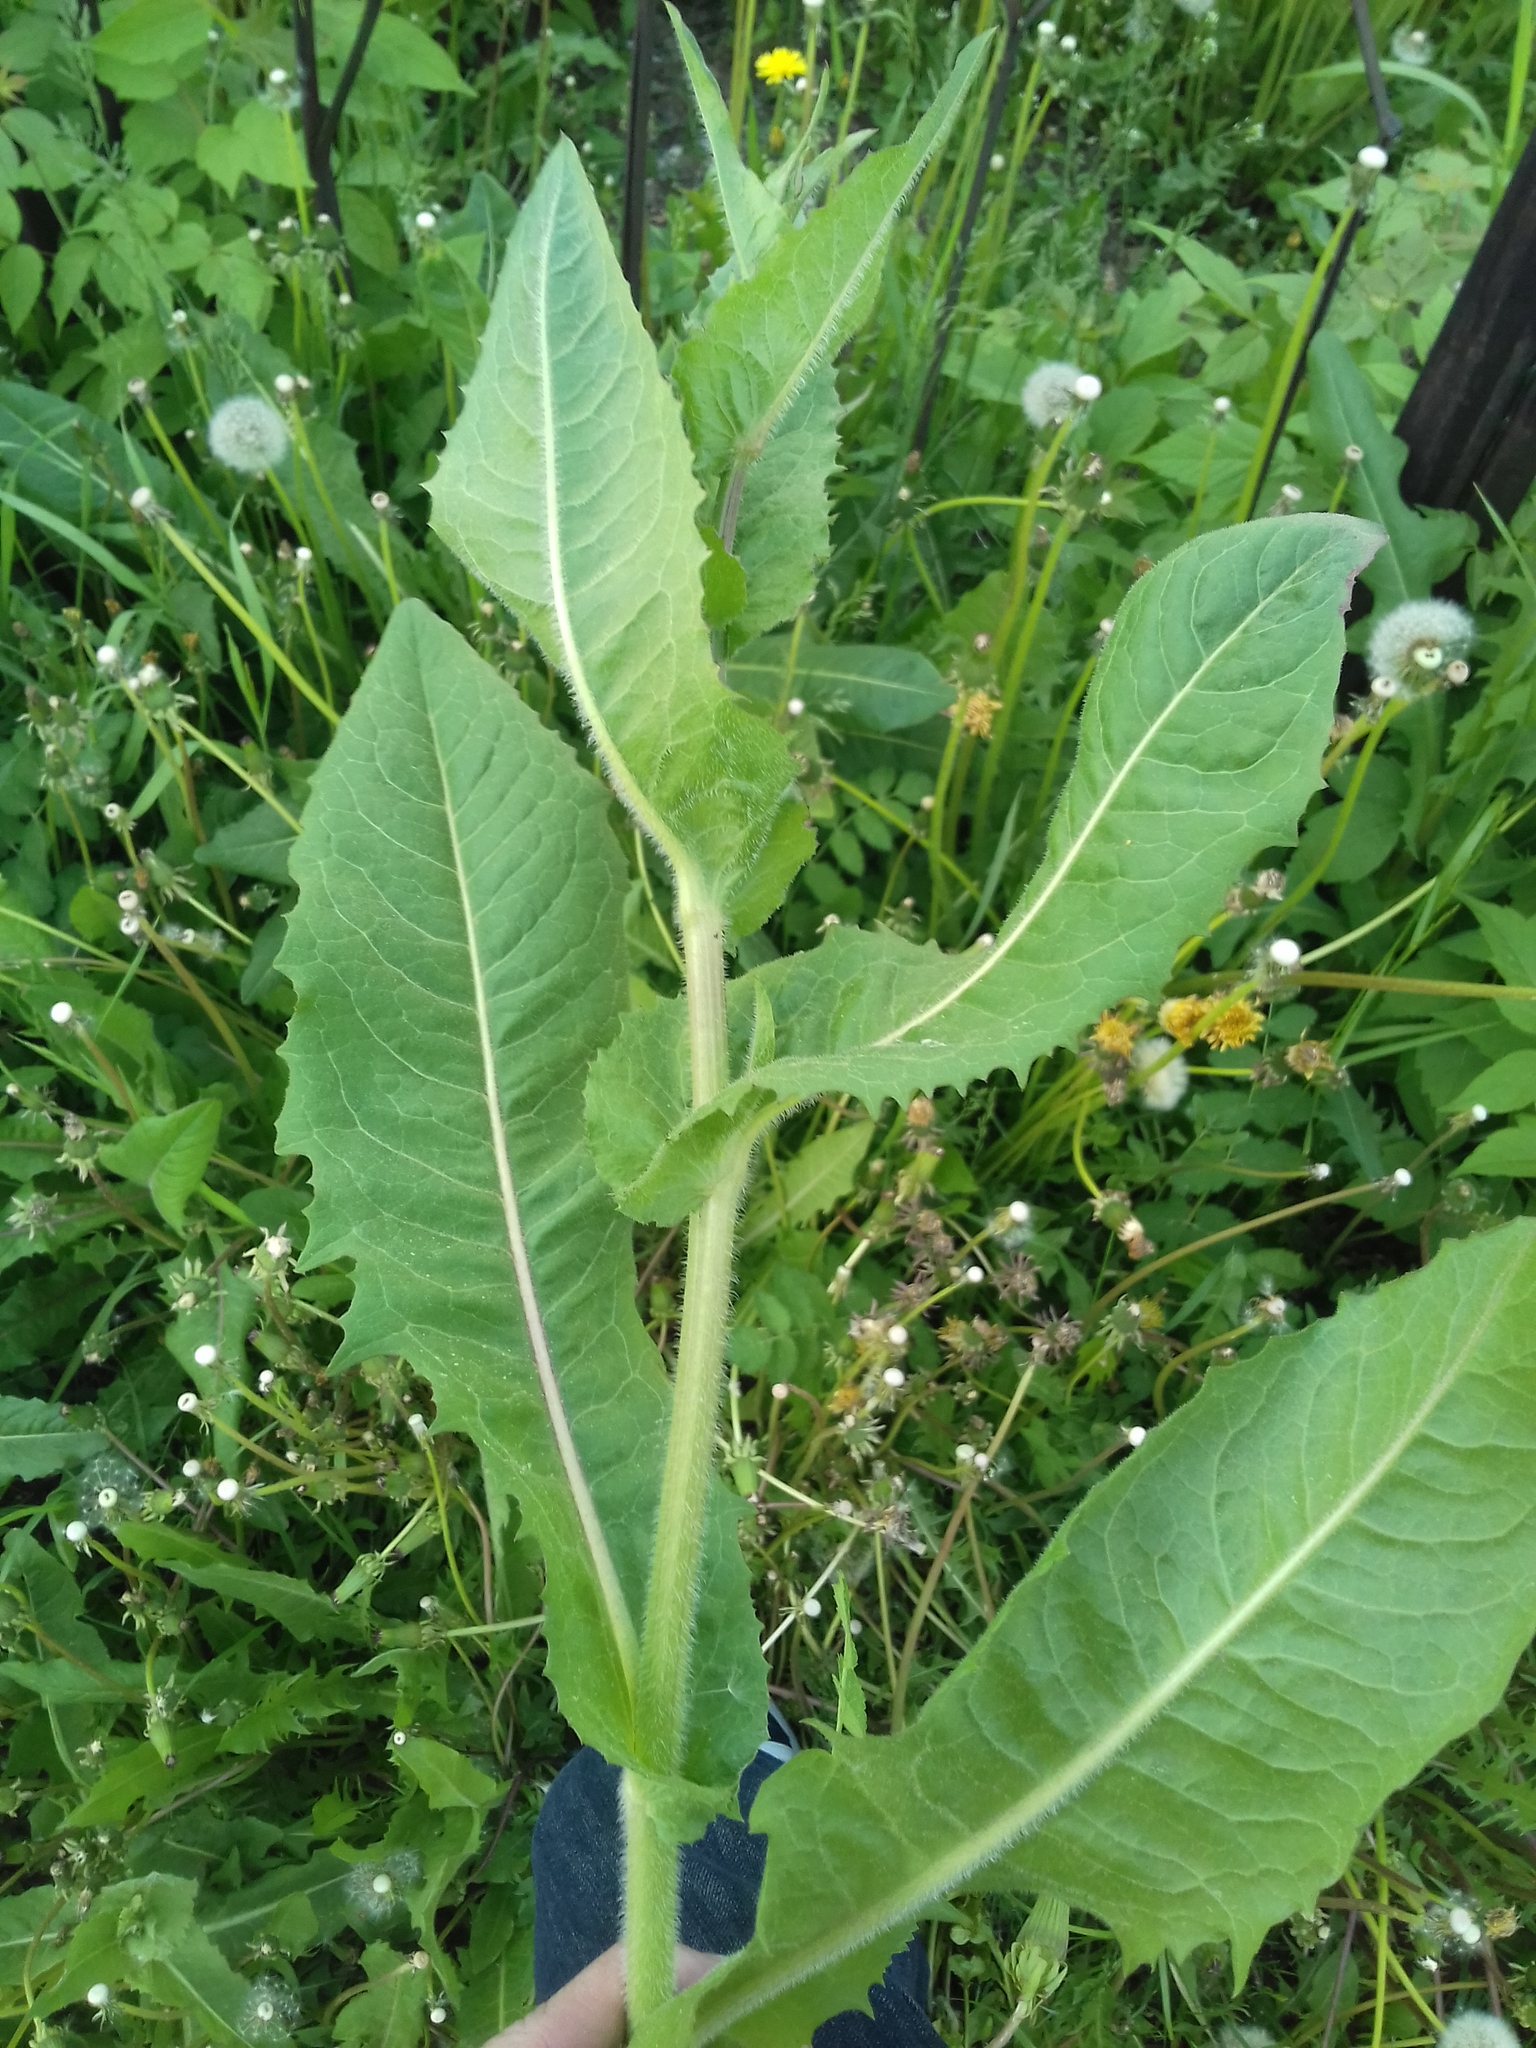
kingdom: Plantae
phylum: Tracheophyta
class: Magnoliopsida
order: Asterales
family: Asteraceae
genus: Cichorium
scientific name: Cichorium intybus
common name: Chicory
